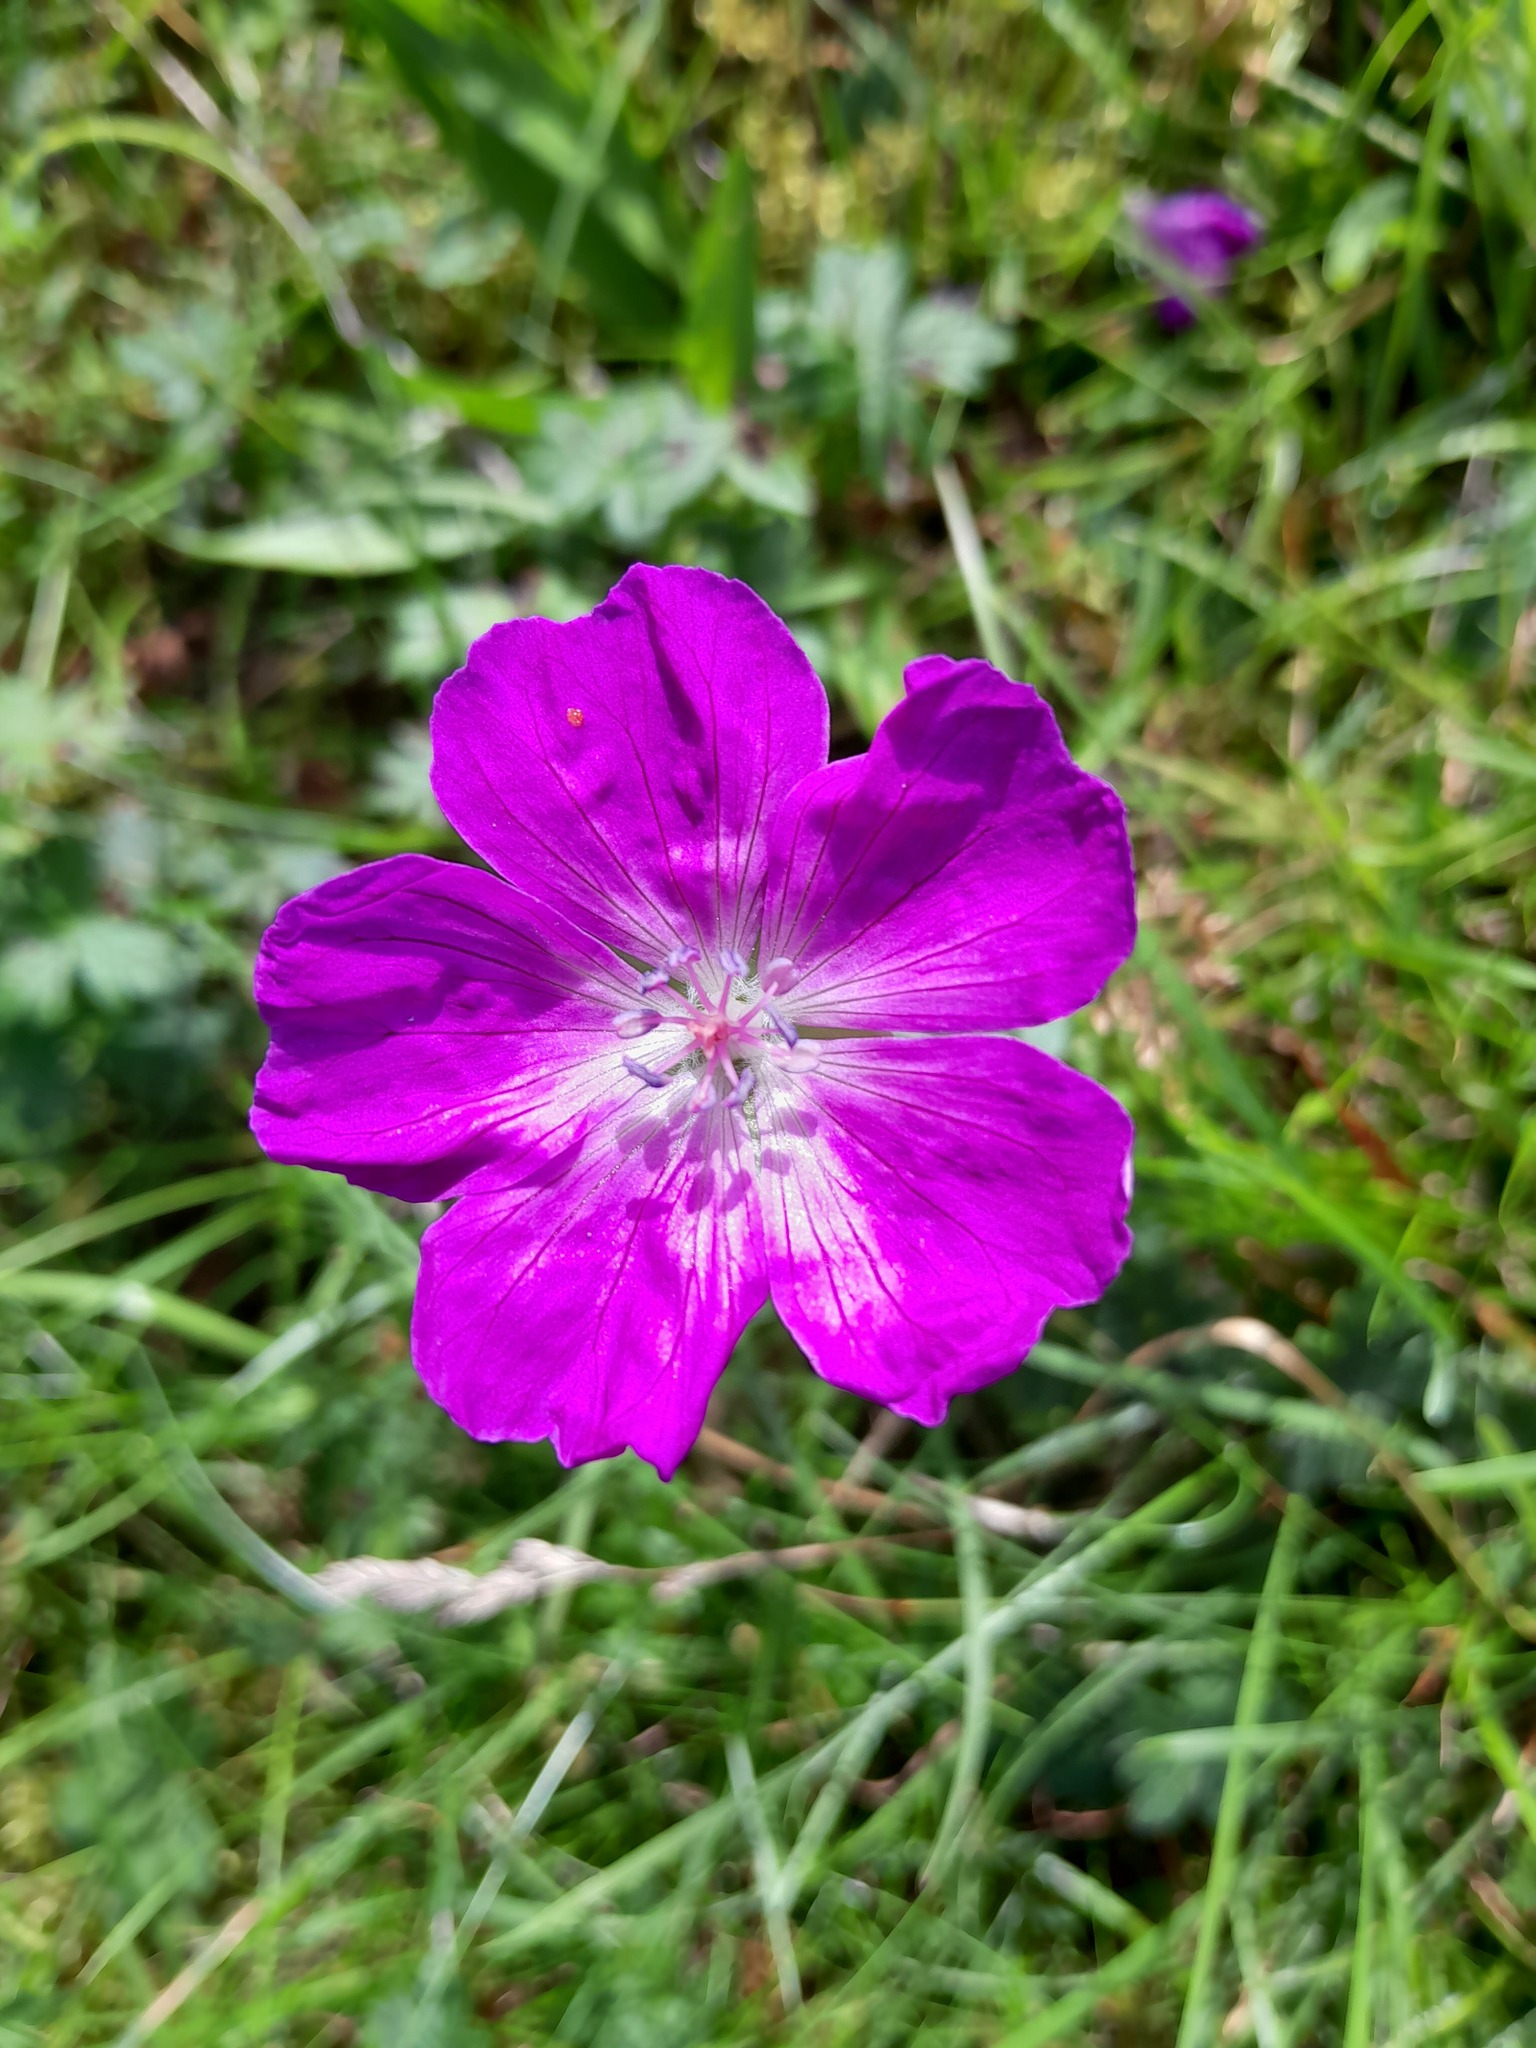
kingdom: Plantae
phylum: Tracheophyta
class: Magnoliopsida
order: Geraniales
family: Geraniaceae
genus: Geranium
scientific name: Geranium sanguineum
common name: Bloody crane's-bill
